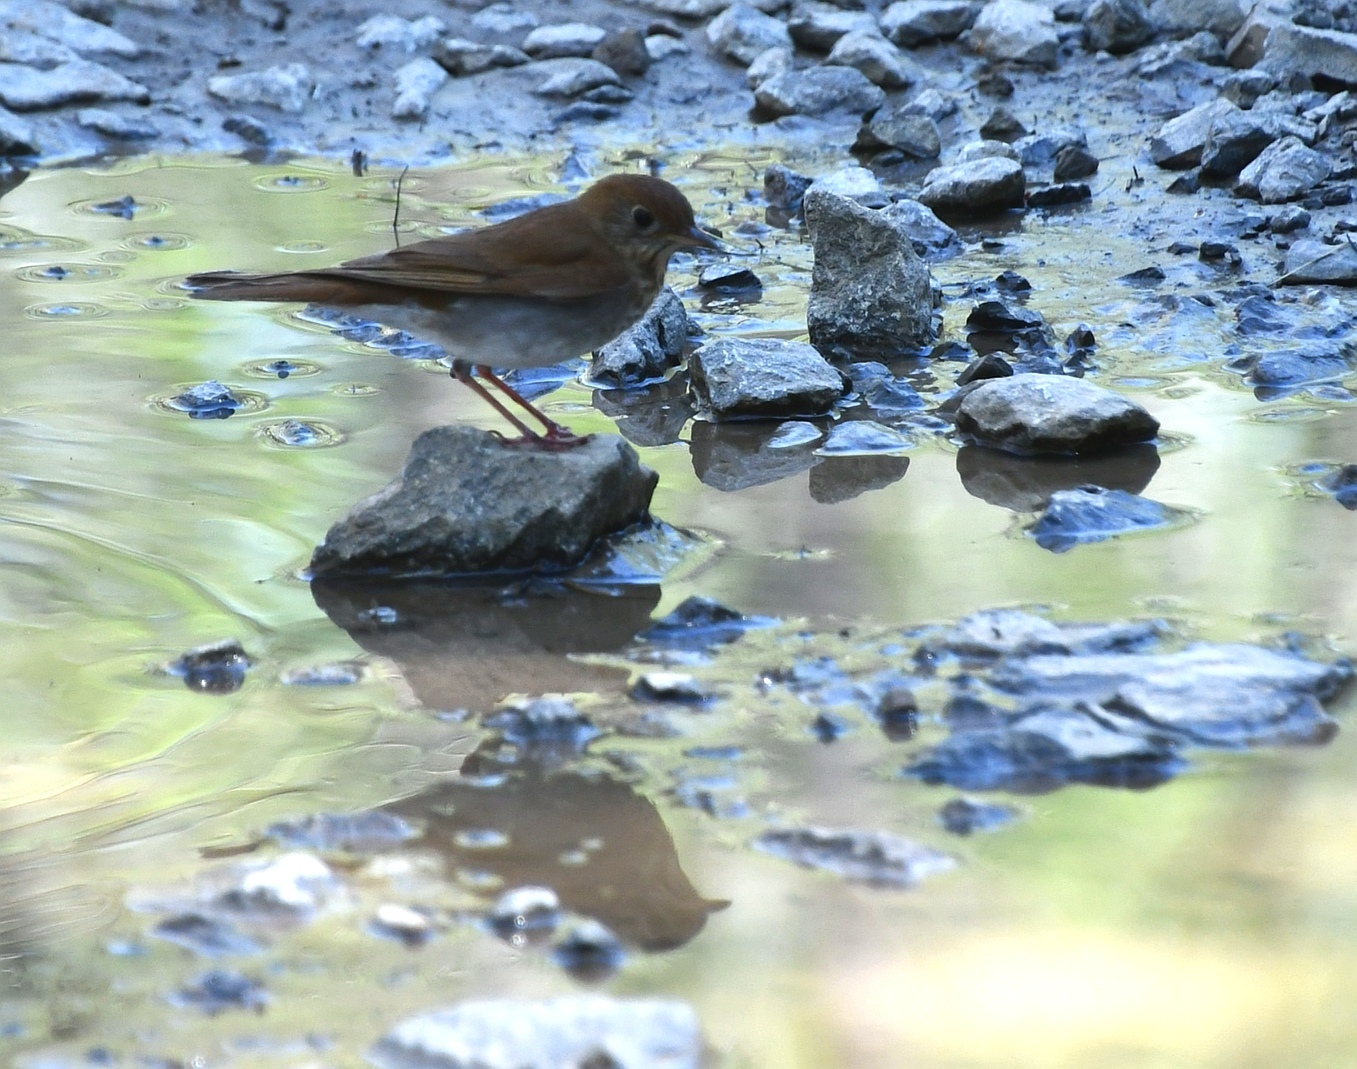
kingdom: Animalia
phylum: Chordata
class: Aves
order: Passeriformes
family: Turdidae
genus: Catharus
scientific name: Catharus fuscescens
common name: Veery
